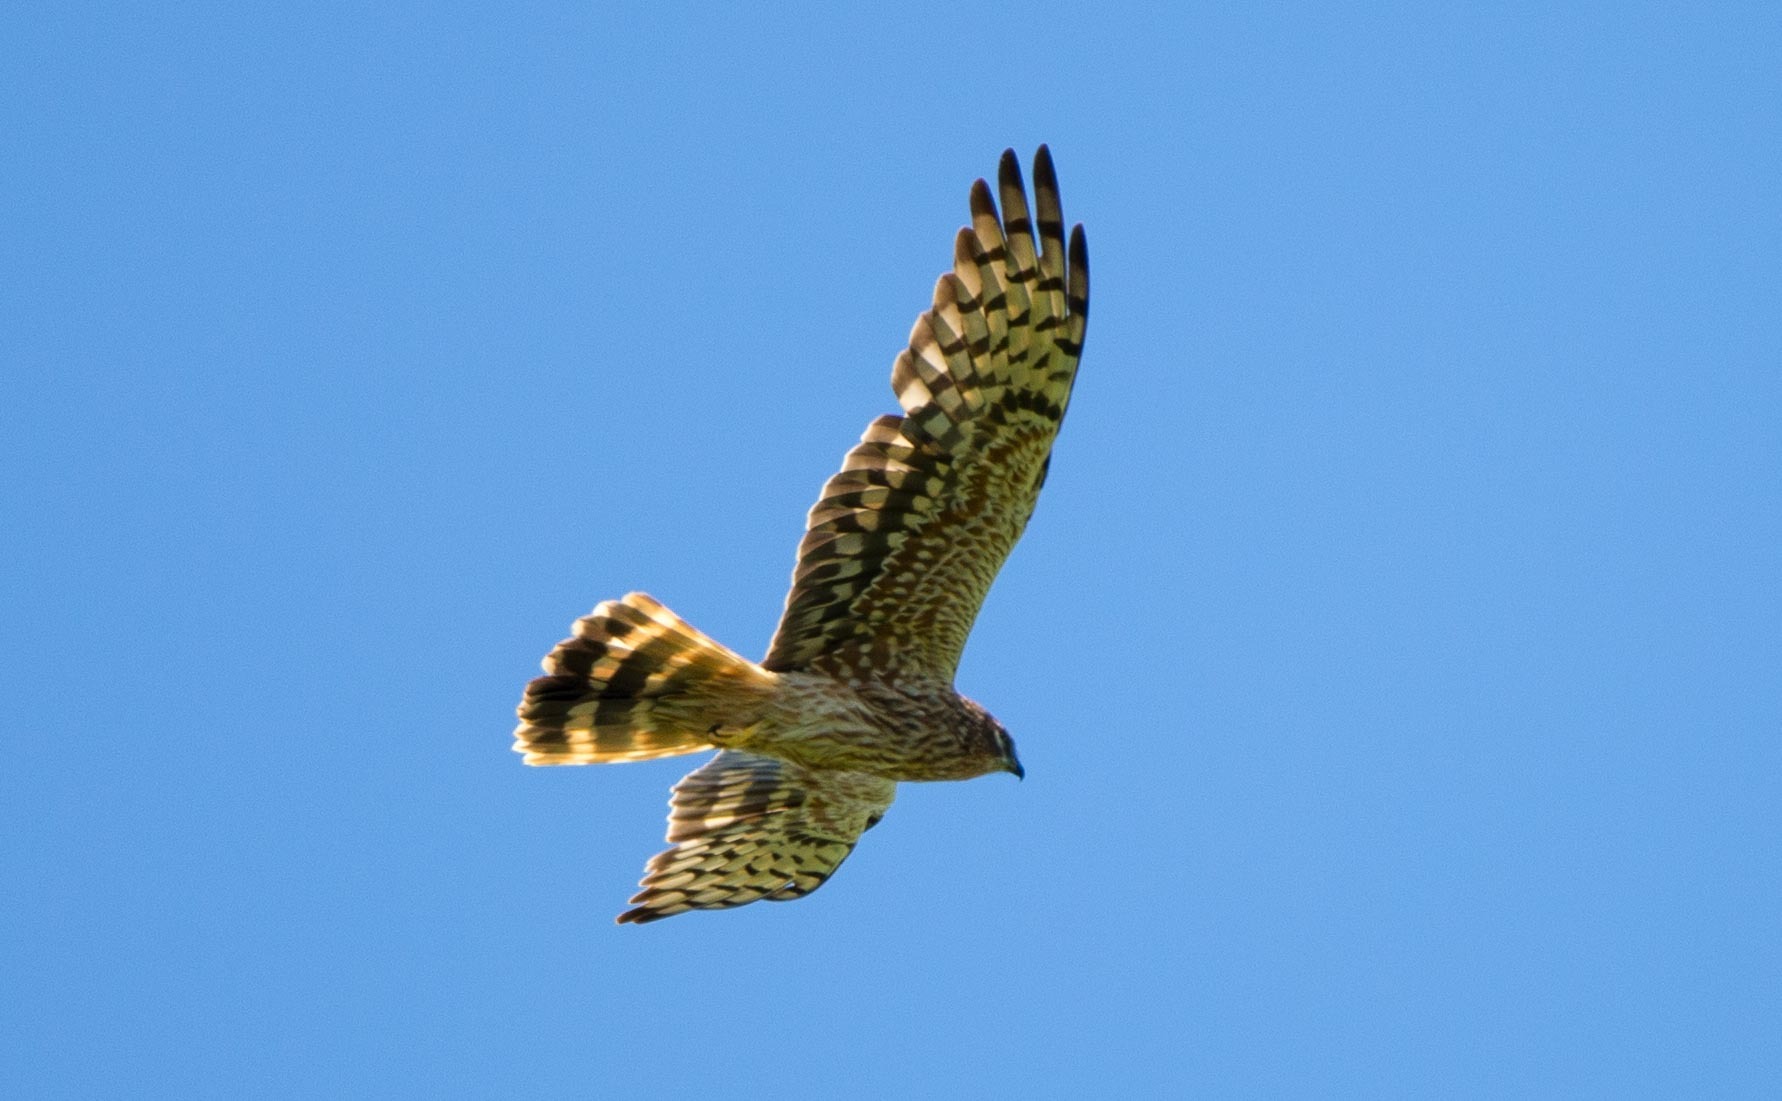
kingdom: Animalia
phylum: Chordata
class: Aves
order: Accipitriformes
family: Accipitridae
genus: Circus
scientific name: Circus pygargus
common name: Montagu's harrier
